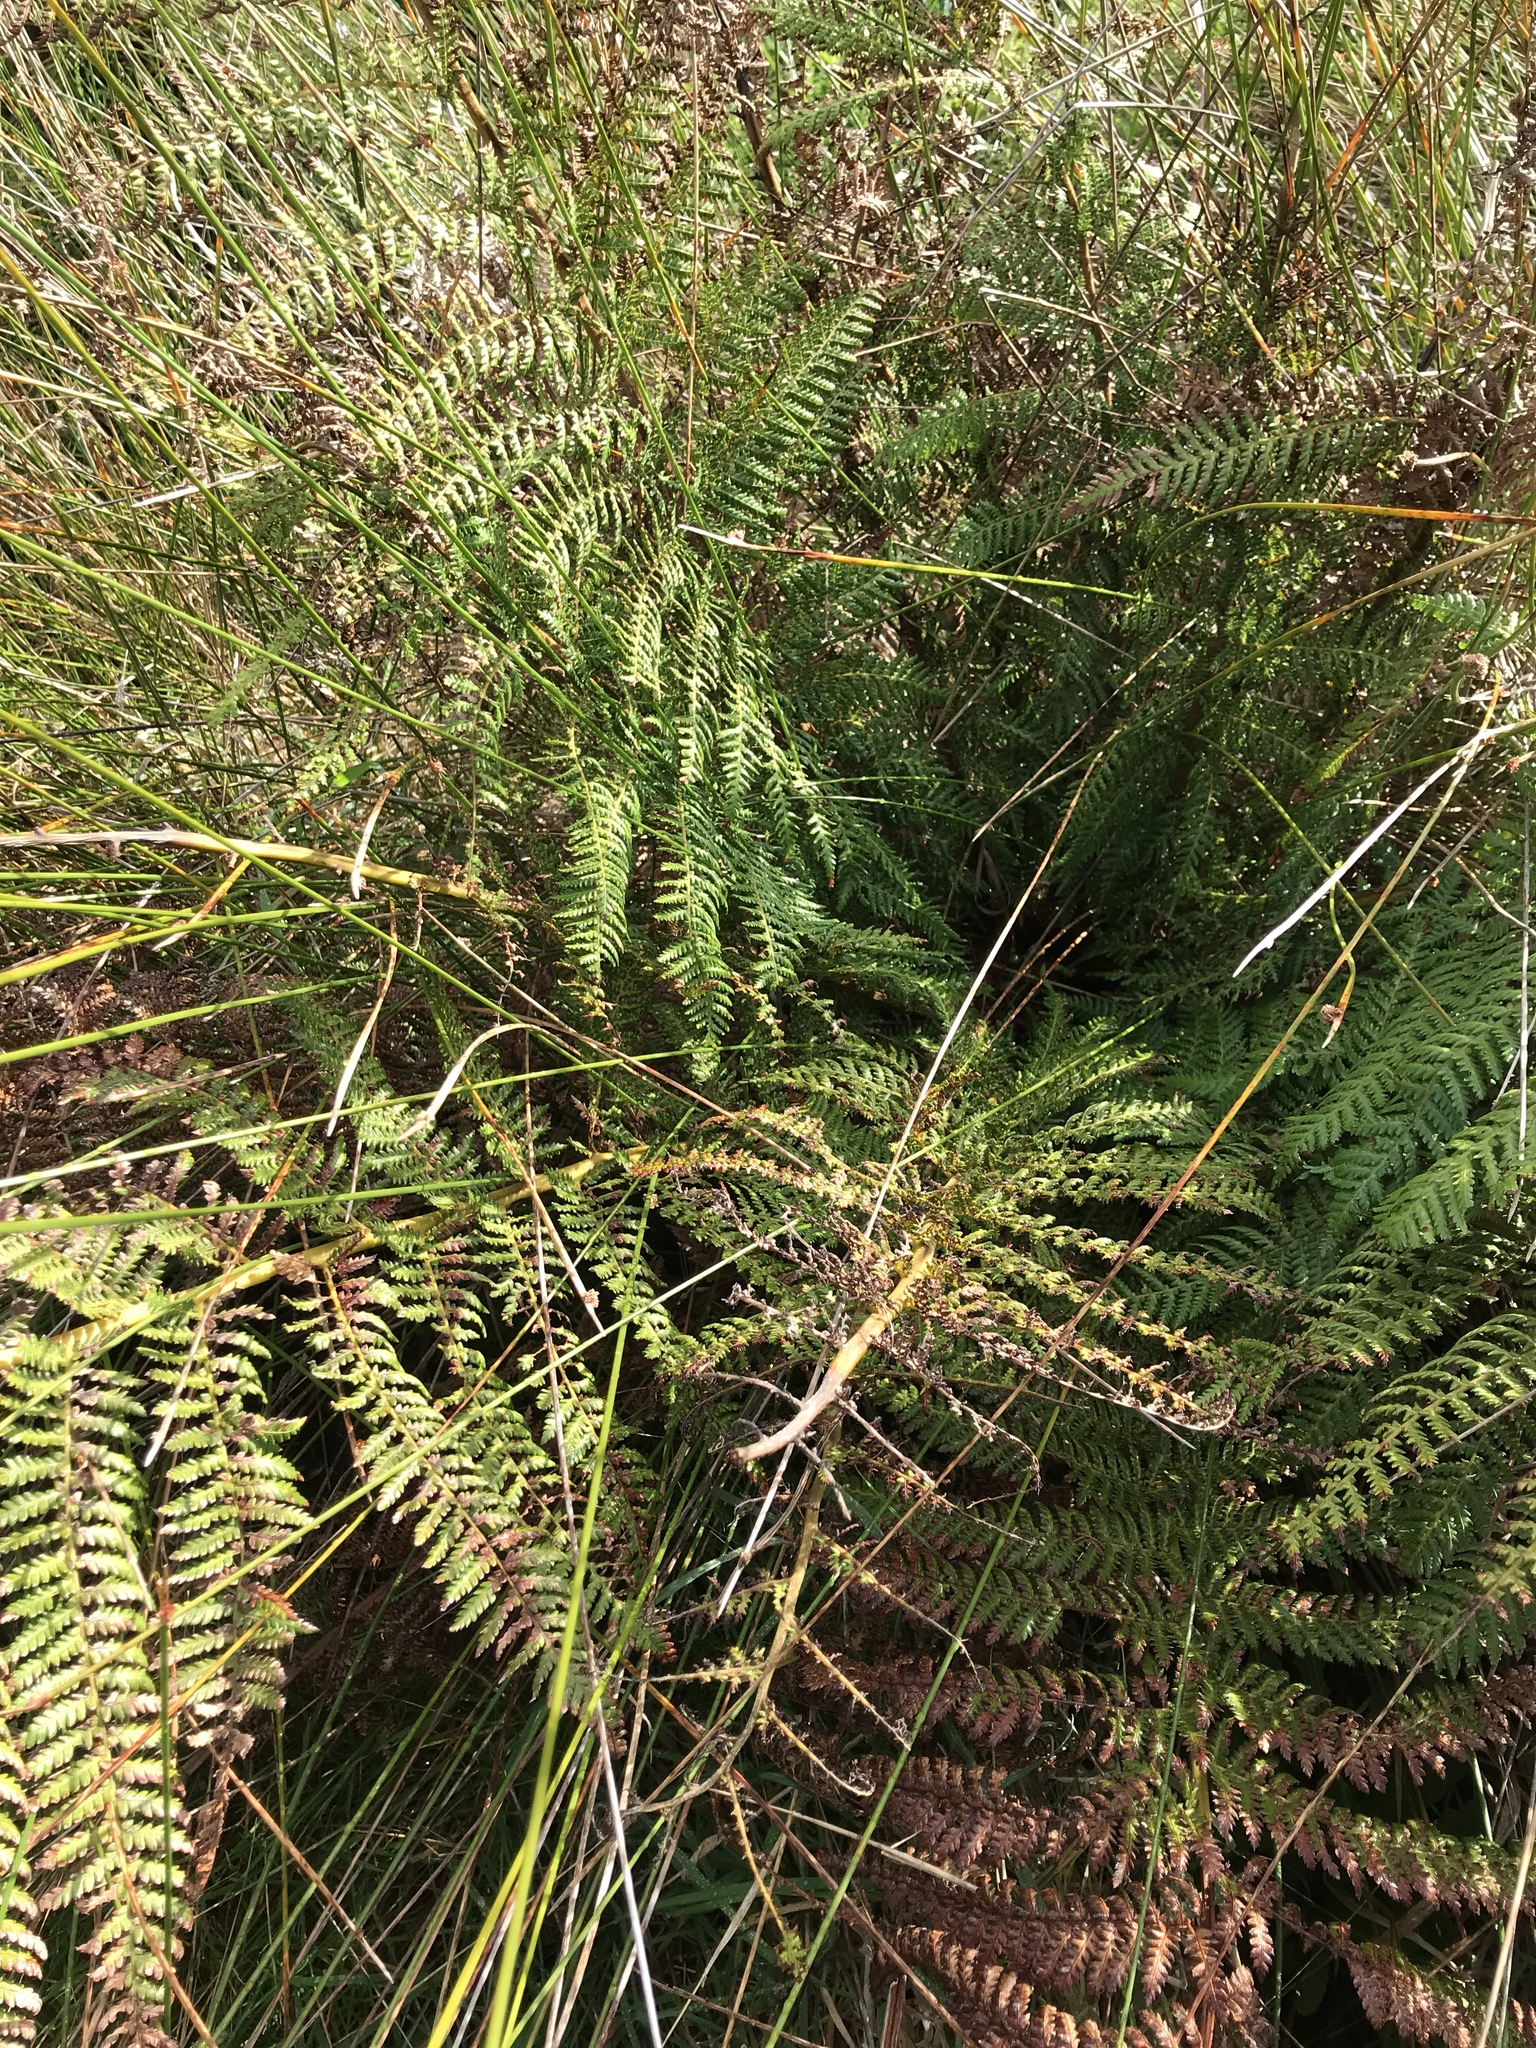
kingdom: Plantae
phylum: Tracheophyta
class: Polypodiopsida
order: Cyatheales
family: Dicksoniaceae
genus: Dicksonia
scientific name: Dicksonia fibrosa
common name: Golden tree fern
